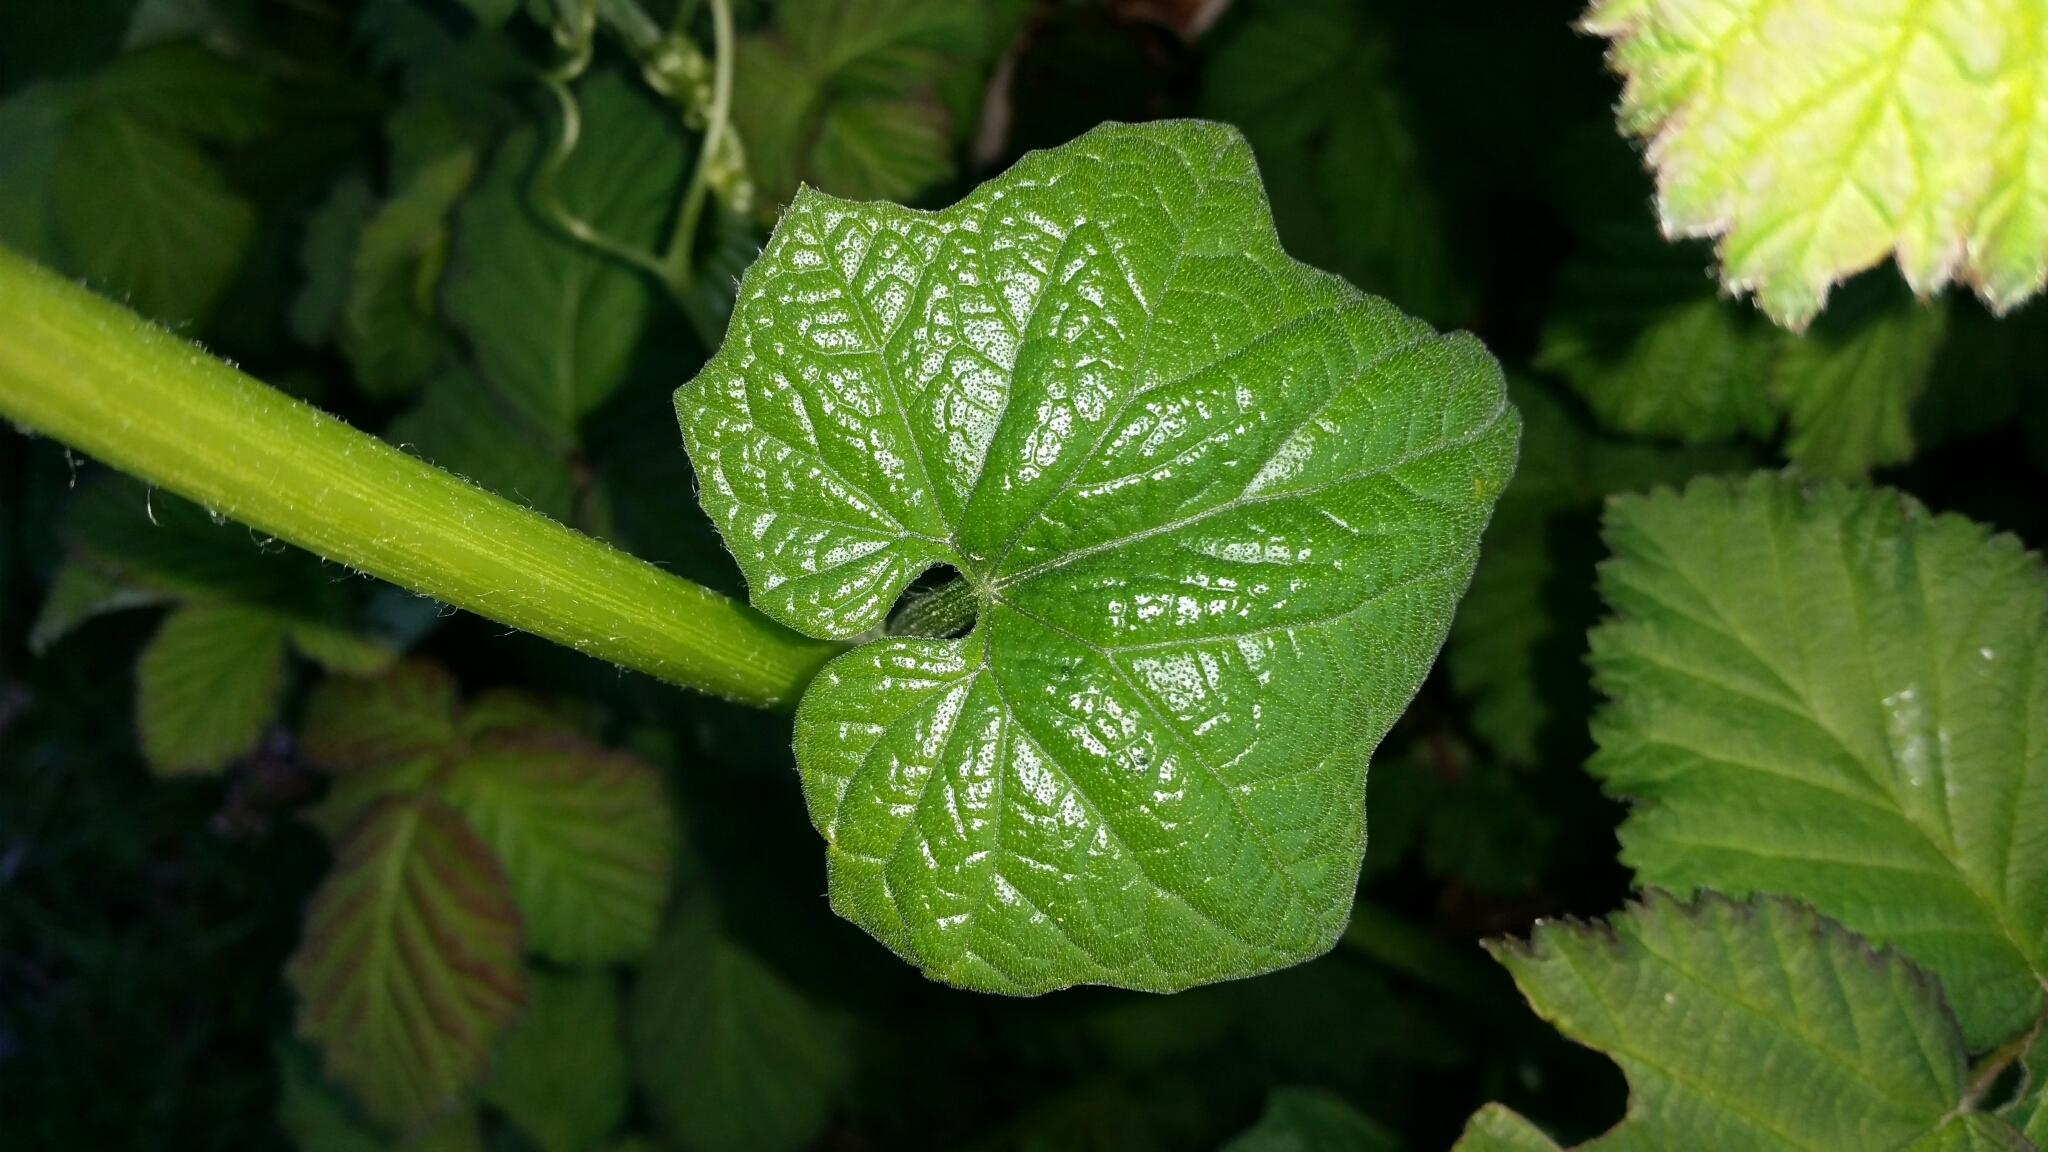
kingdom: Plantae
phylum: Tracheophyta
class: Magnoliopsida
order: Cucurbitales
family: Cucurbitaceae
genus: Marah
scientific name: Marah oregana
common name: Coastal manroot
